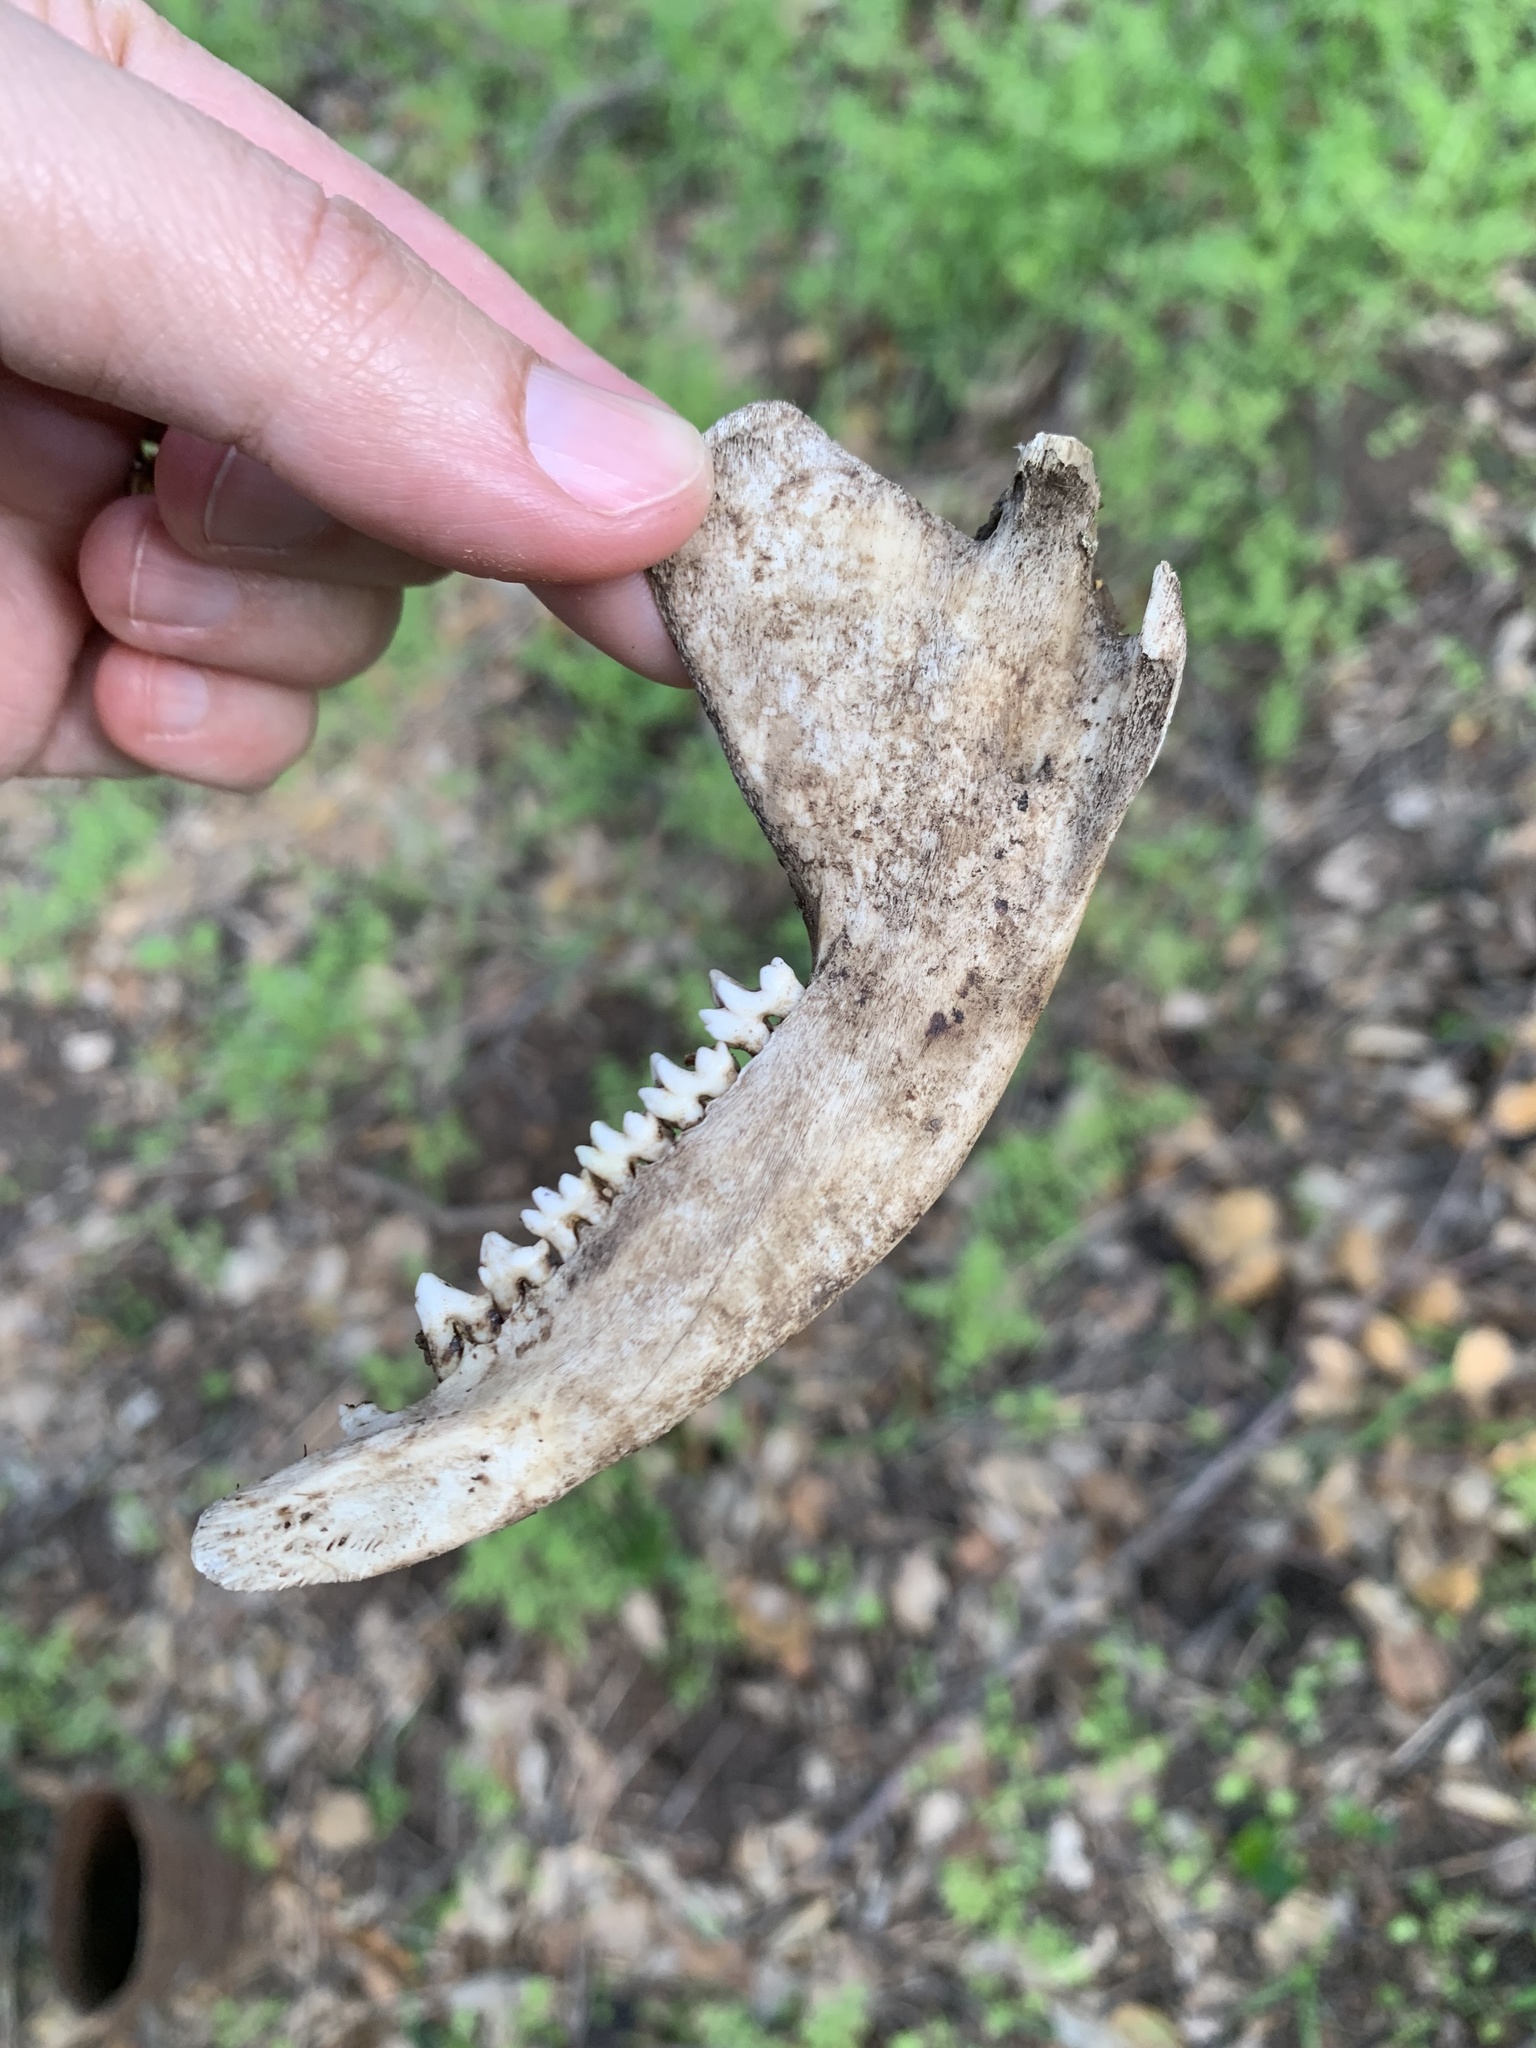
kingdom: Animalia
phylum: Chordata
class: Mammalia
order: Didelphimorphia
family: Didelphidae
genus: Didelphis
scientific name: Didelphis virginiana
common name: Virginia opossum
